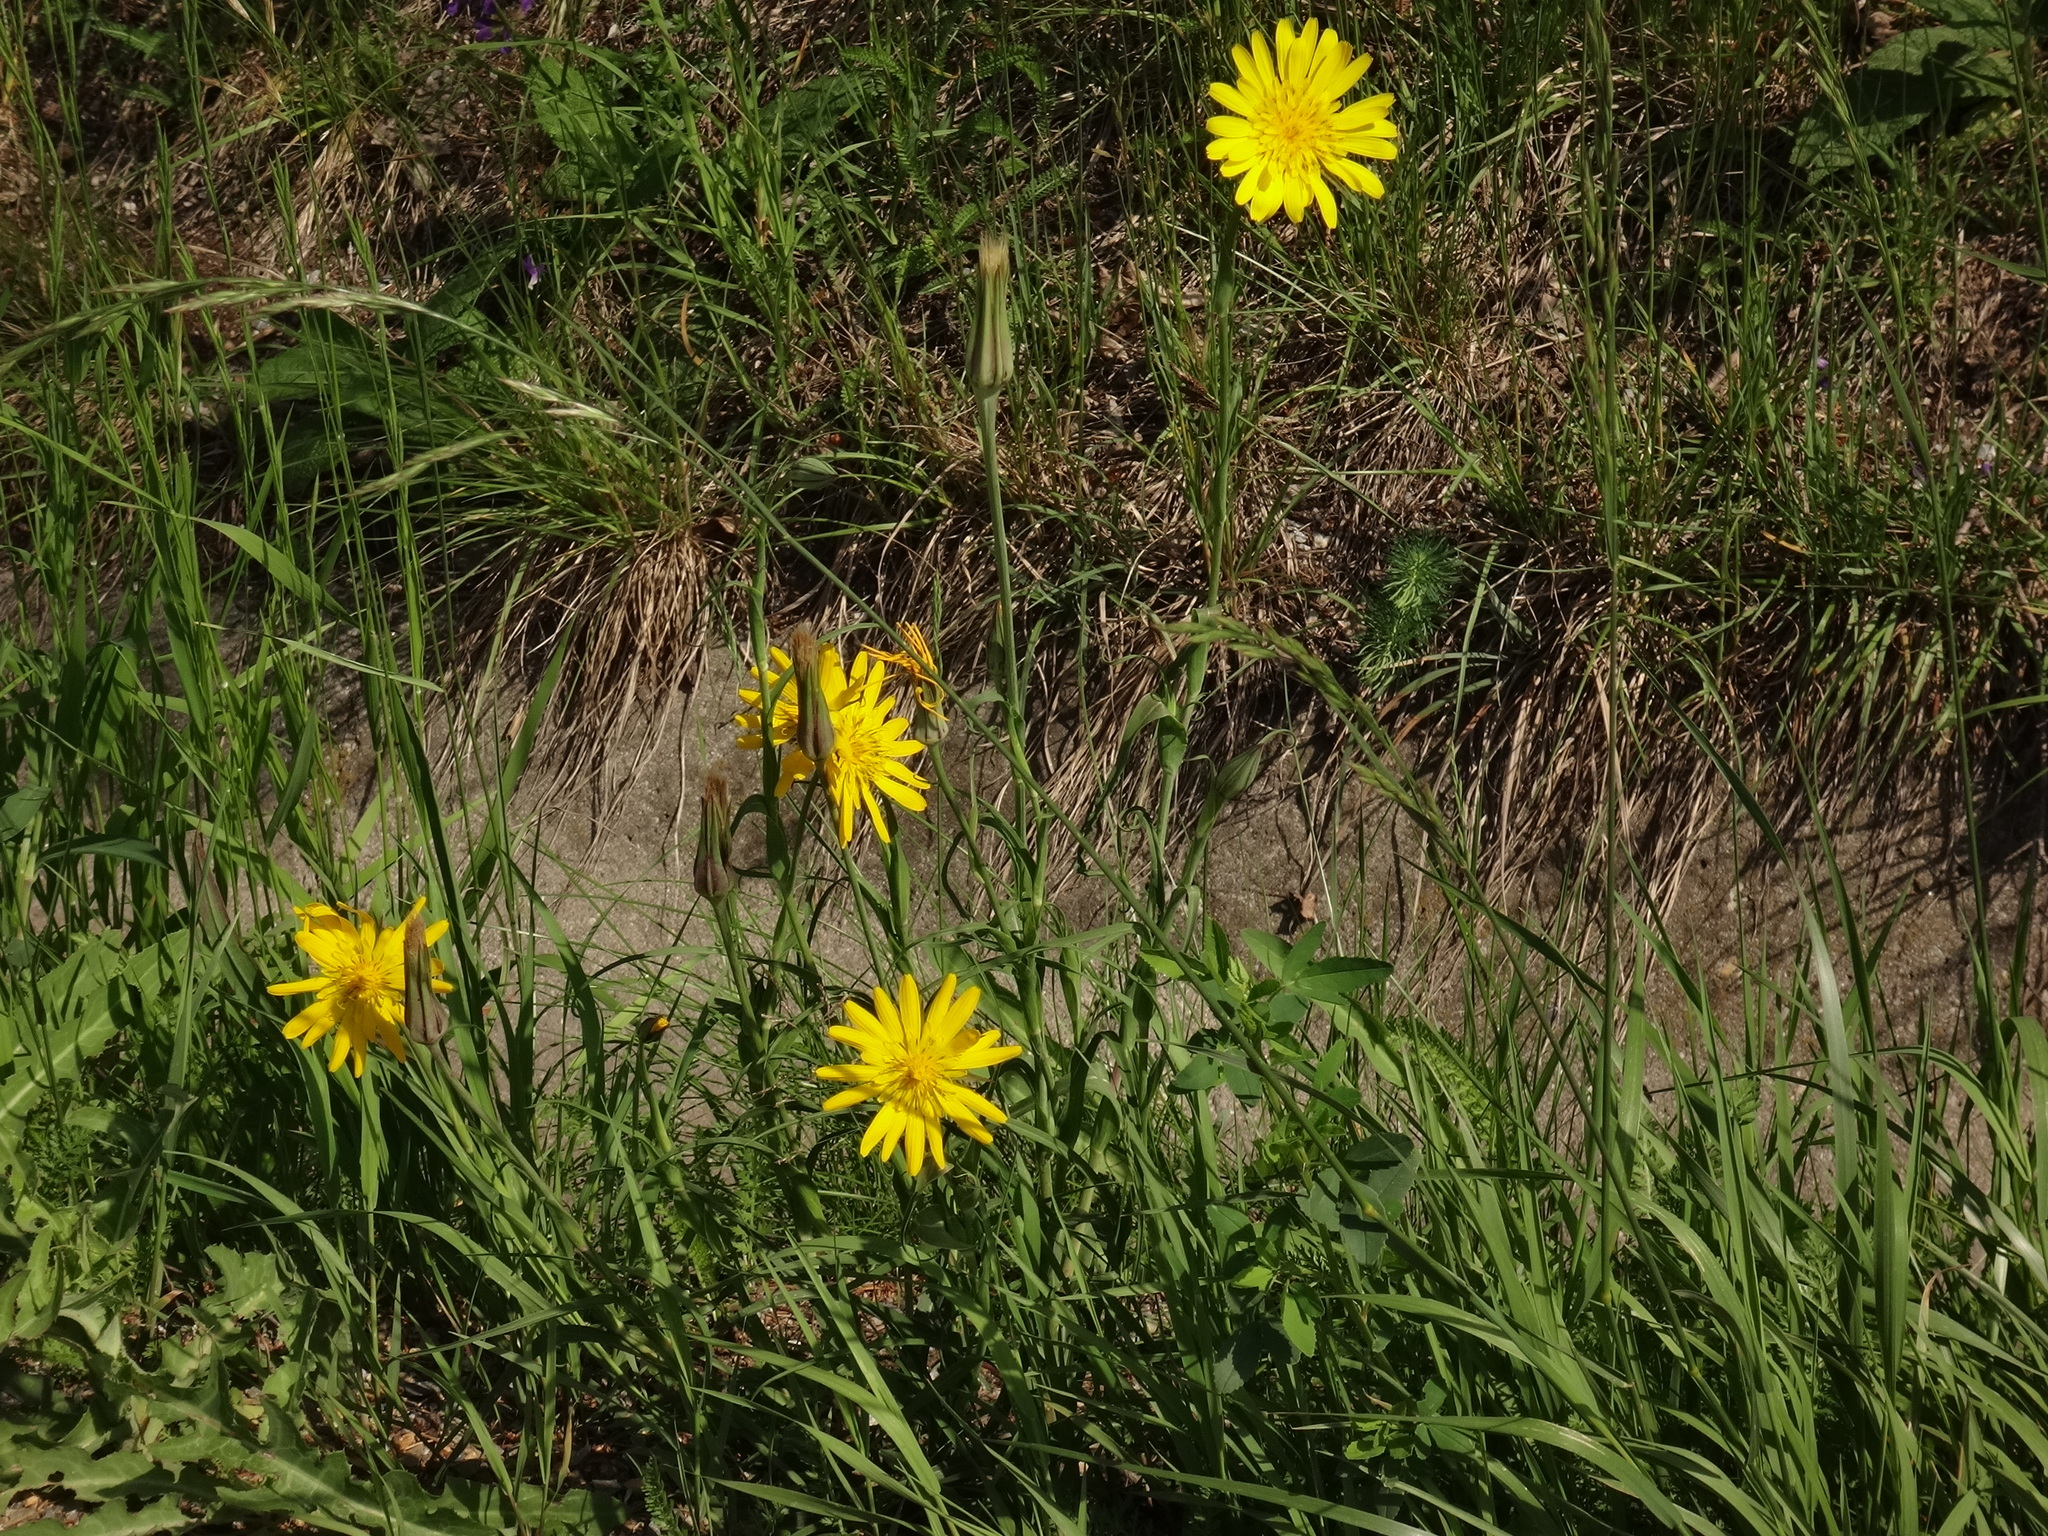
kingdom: Plantae
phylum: Tracheophyta
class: Magnoliopsida
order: Asterales
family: Asteraceae
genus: Tragopogon
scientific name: Tragopogon orientalis
